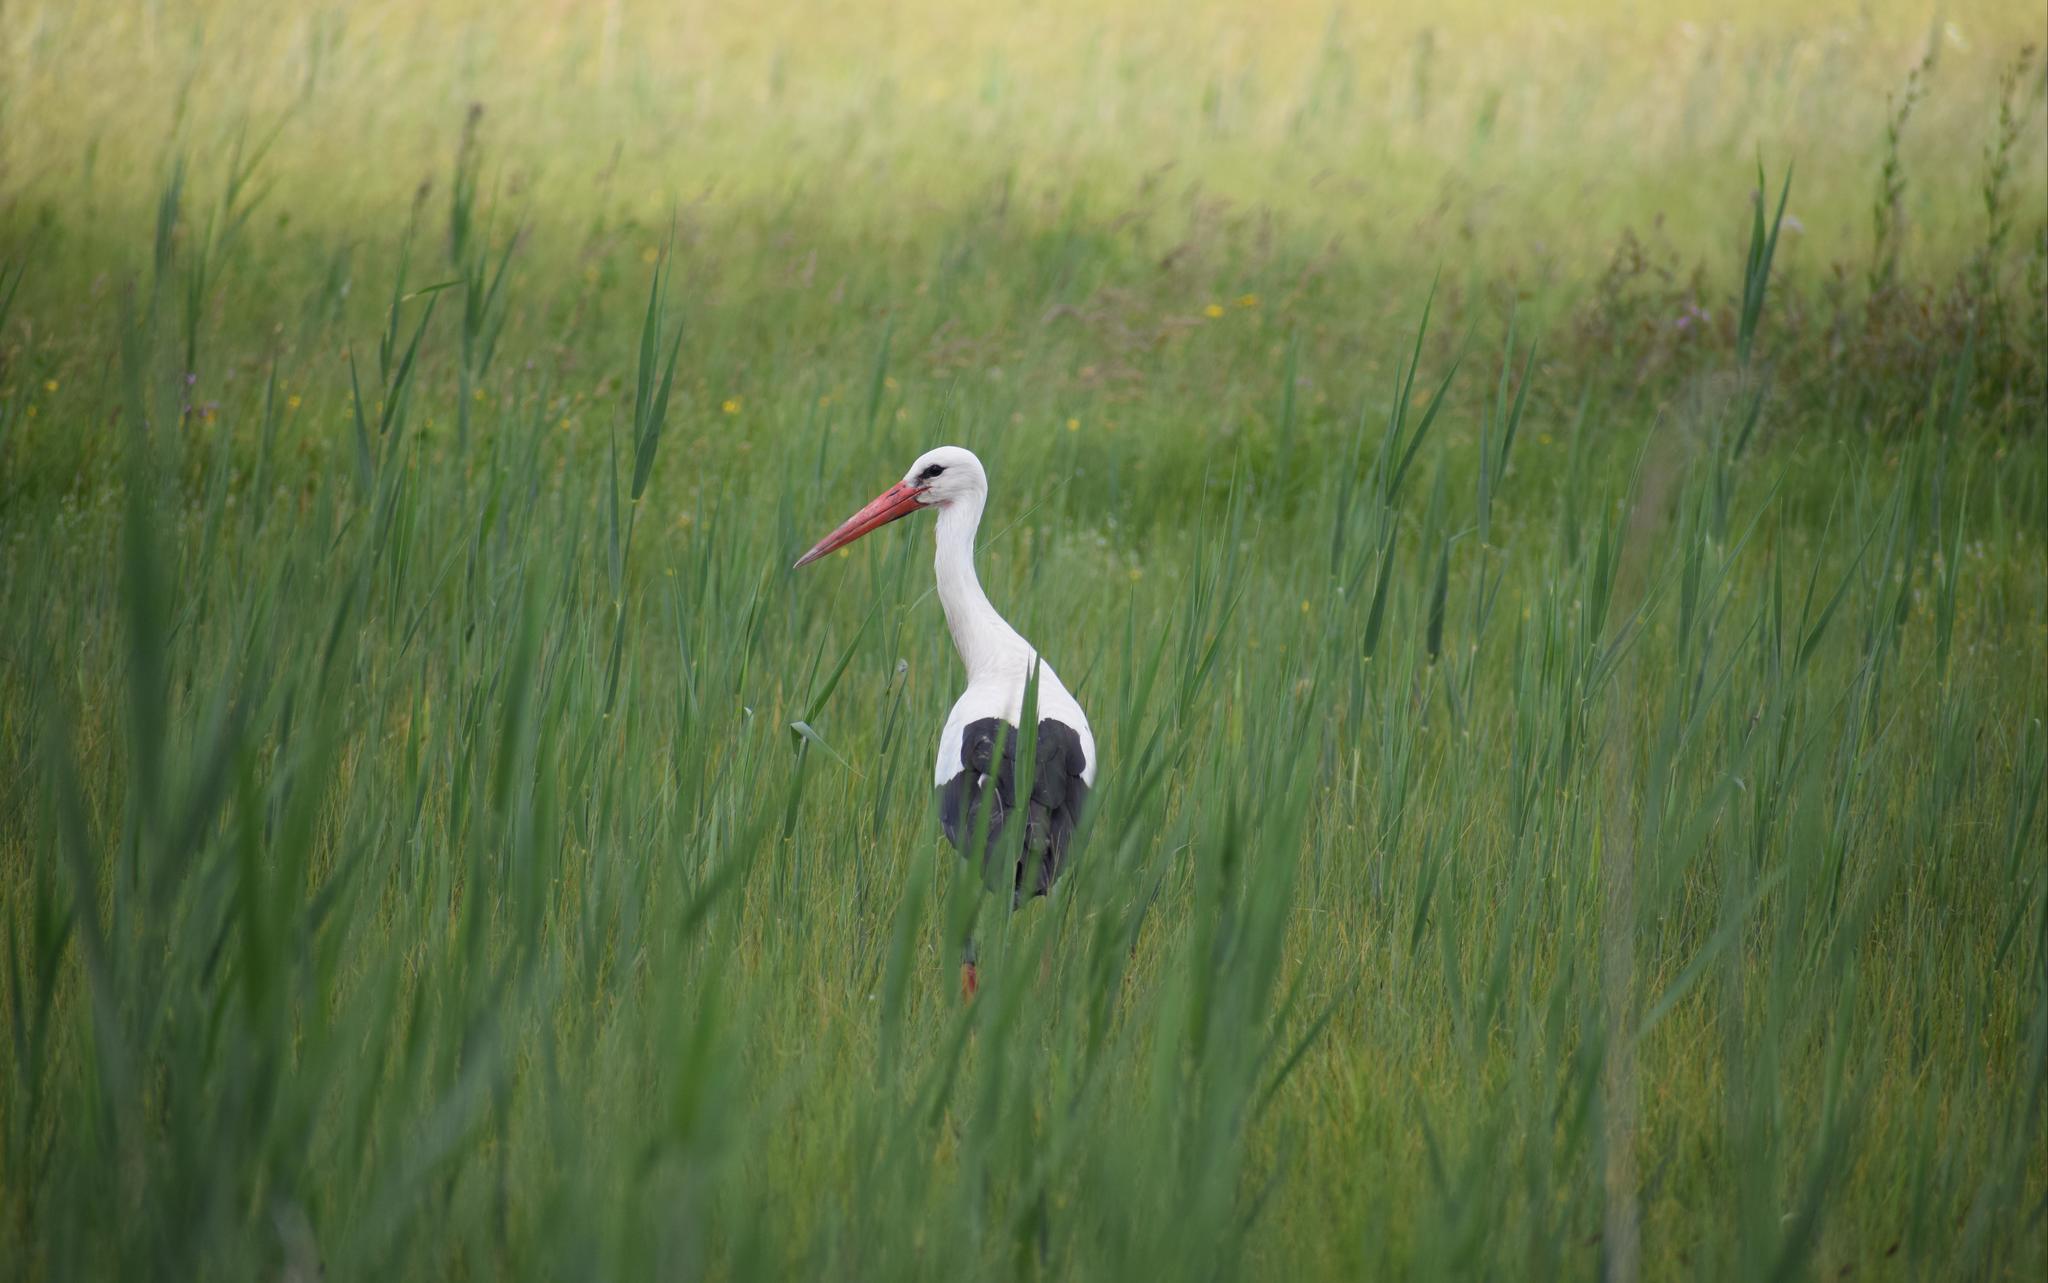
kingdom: Animalia
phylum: Chordata
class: Aves
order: Ciconiiformes
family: Ciconiidae
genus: Ciconia
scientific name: Ciconia ciconia
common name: White stork
